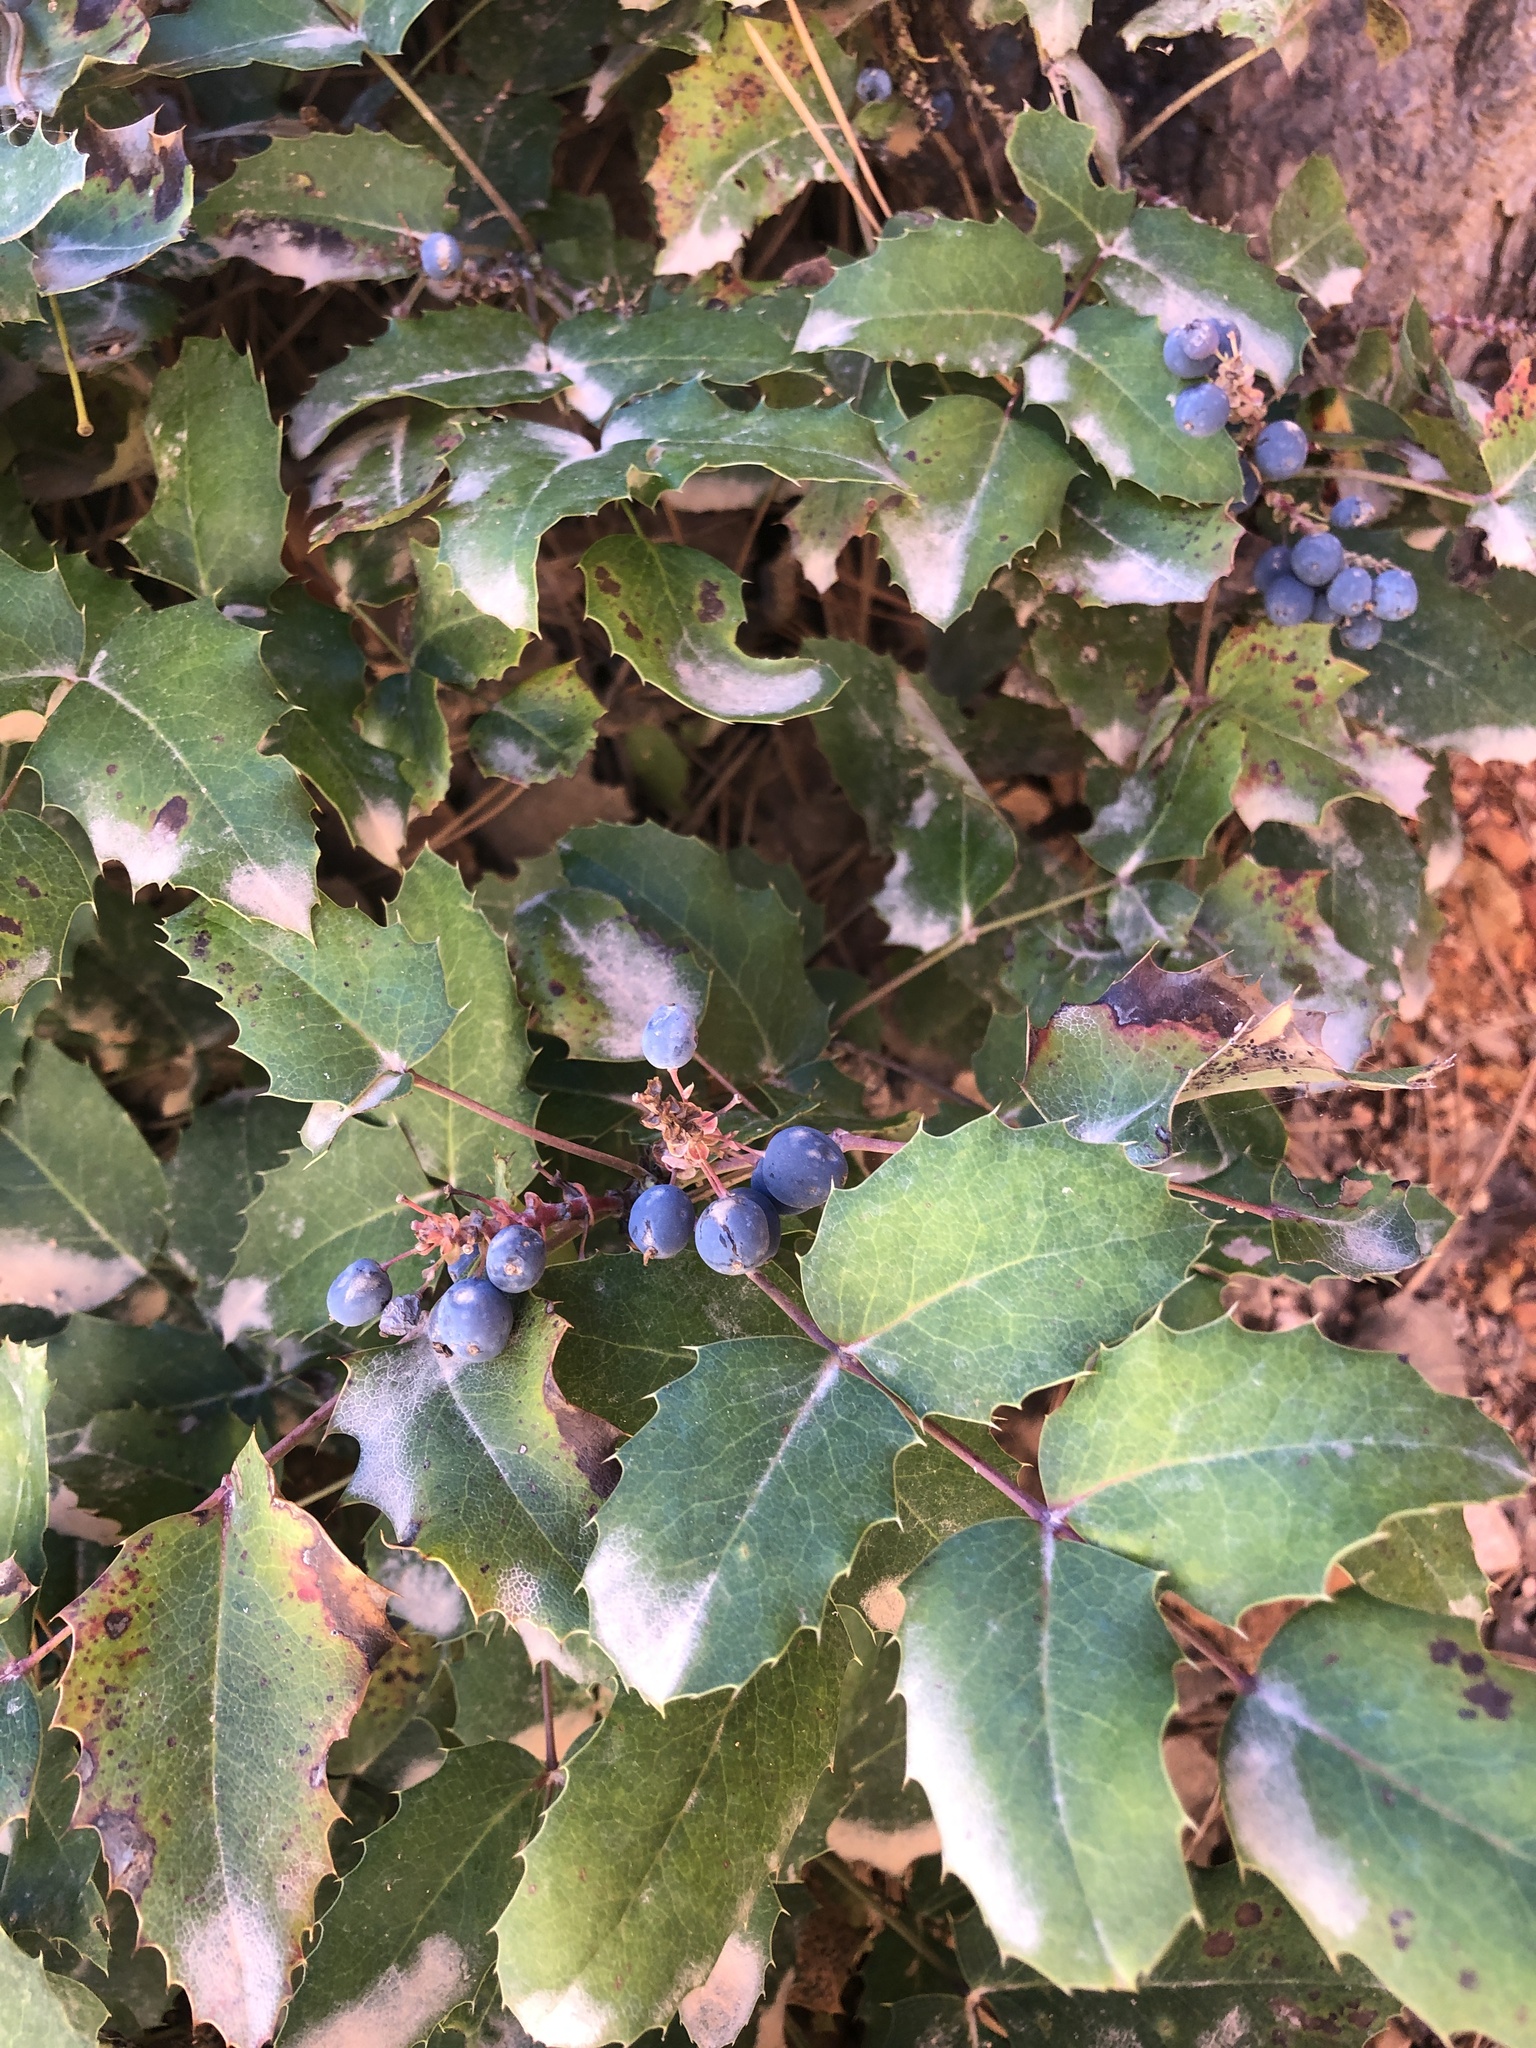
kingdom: Plantae
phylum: Tracheophyta
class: Magnoliopsida
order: Ranunculales
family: Berberidaceae
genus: Mahonia
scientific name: Mahonia repens
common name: Creeping oregon-grape
